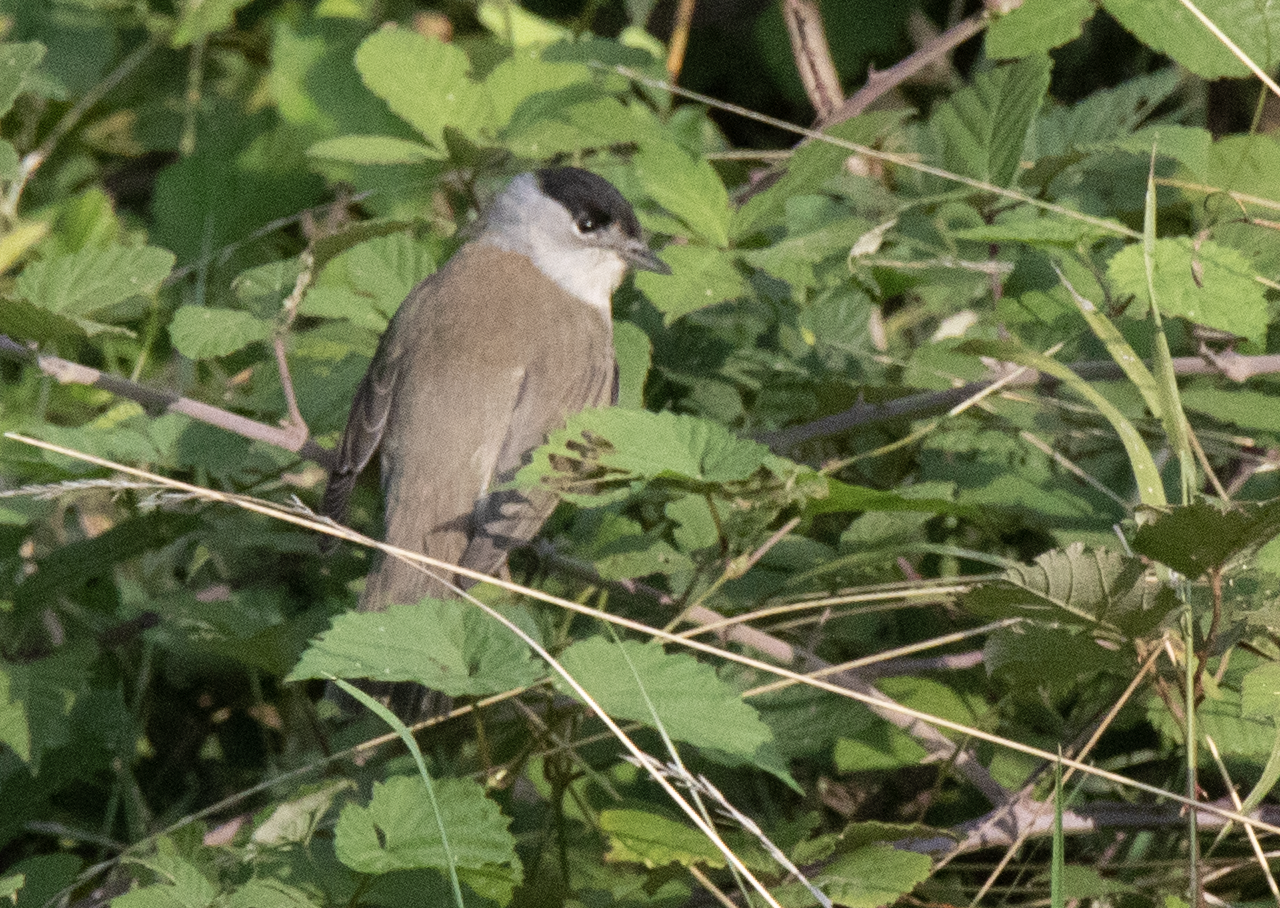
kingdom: Animalia
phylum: Chordata
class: Aves
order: Passeriformes
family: Sylviidae
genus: Sylvia
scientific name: Sylvia atricapilla
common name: Eurasian blackcap
